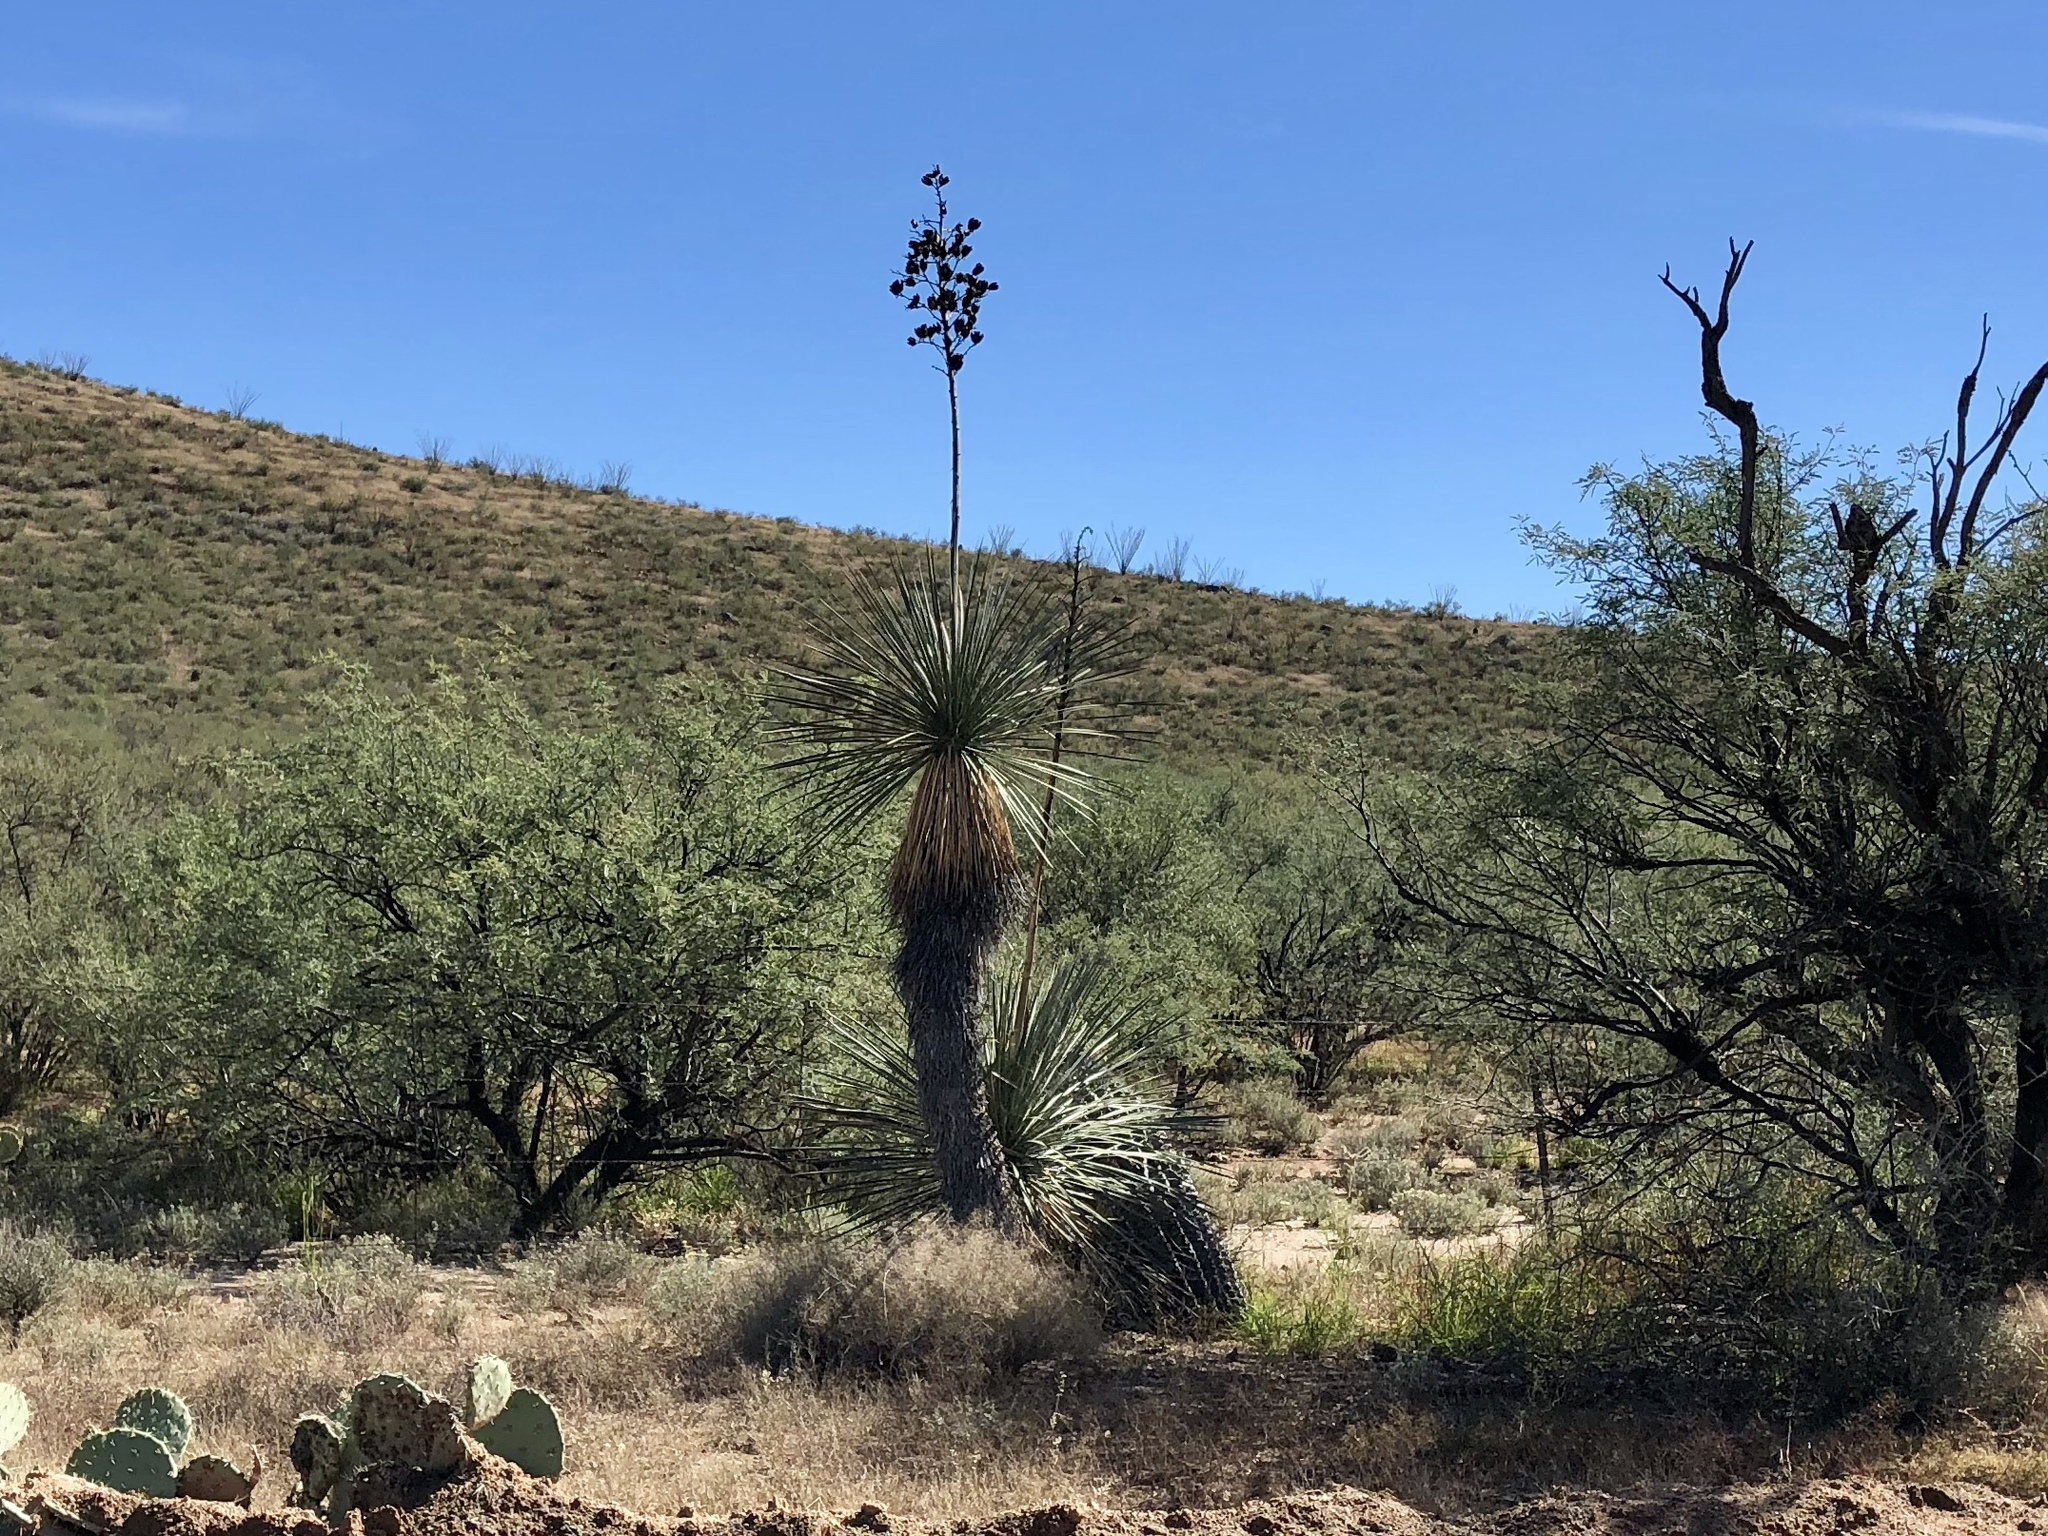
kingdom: Plantae
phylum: Tracheophyta
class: Liliopsida
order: Asparagales
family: Asparagaceae
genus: Yucca
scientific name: Yucca elata
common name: Palmella
